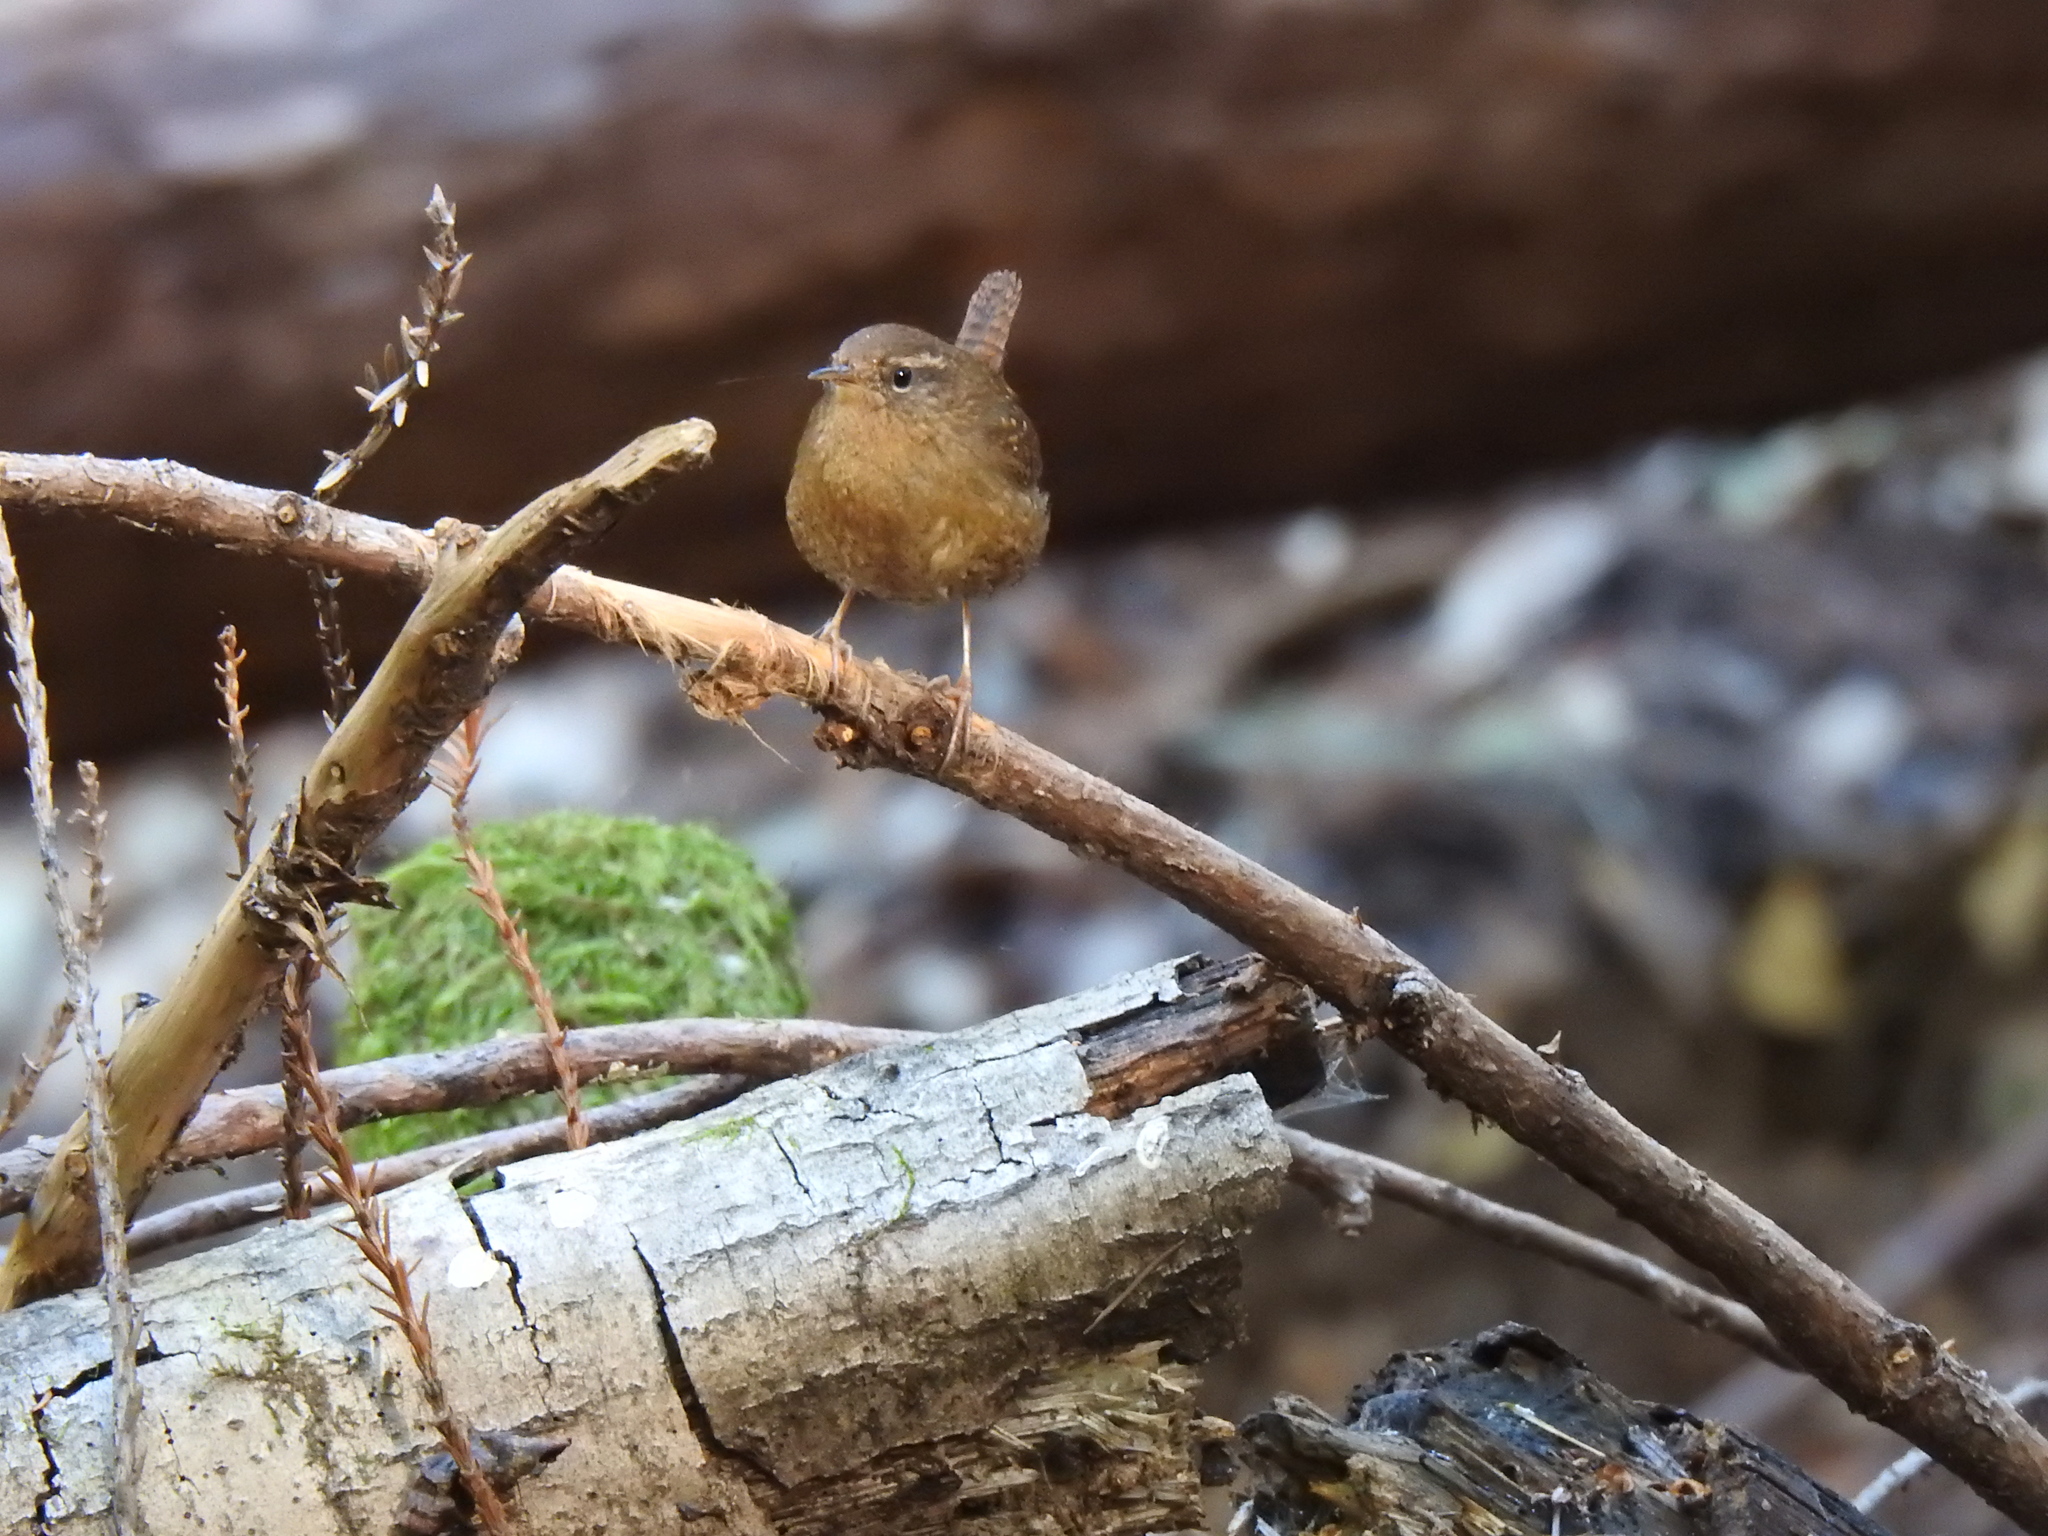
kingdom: Animalia
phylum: Chordata
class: Aves
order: Passeriformes
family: Troglodytidae
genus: Troglodytes
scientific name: Troglodytes pacificus
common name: Pacific wren
